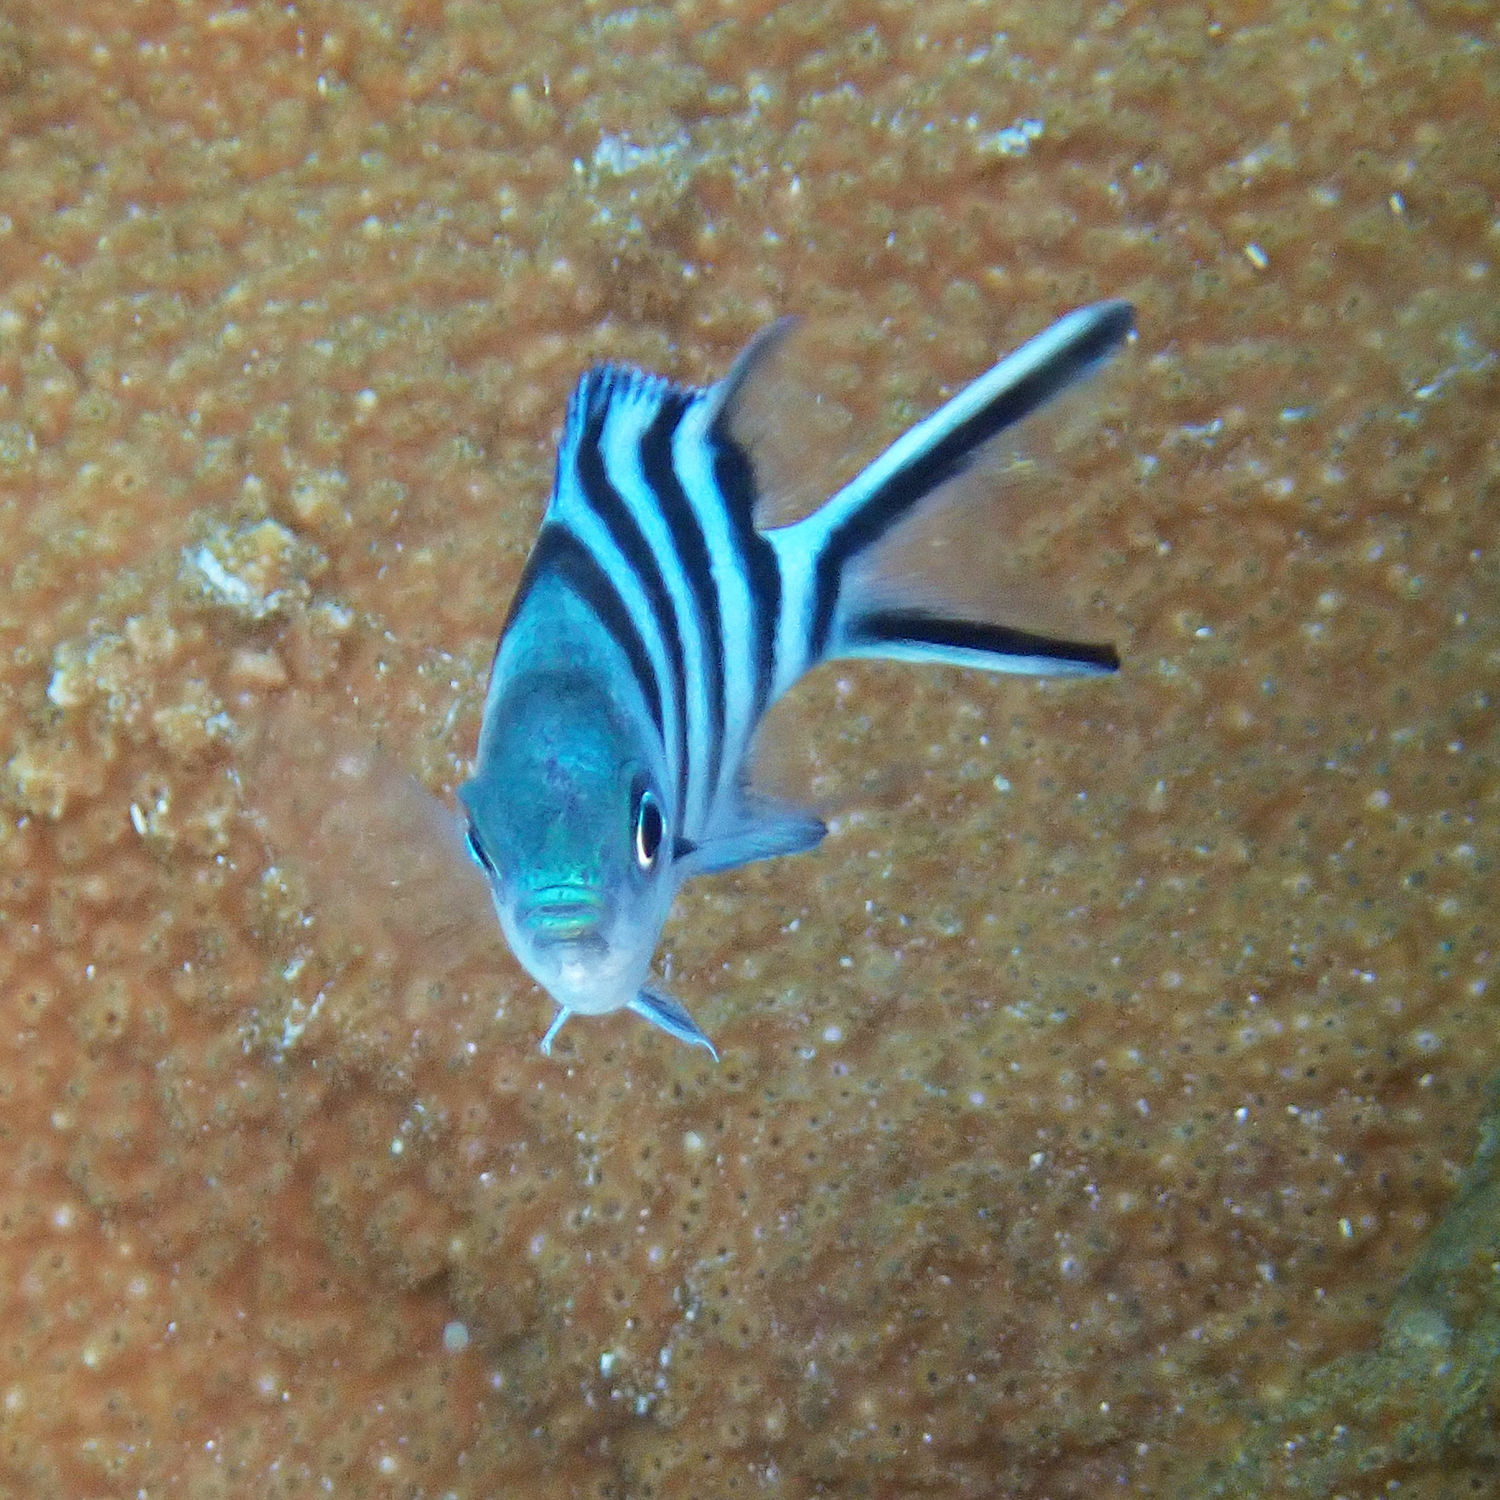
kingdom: Animalia
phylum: Chordata
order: Perciformes
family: Pomacentridae
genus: Abudefduf
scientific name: Abudefduf sexfasciatus
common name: Scissortail sergeant
